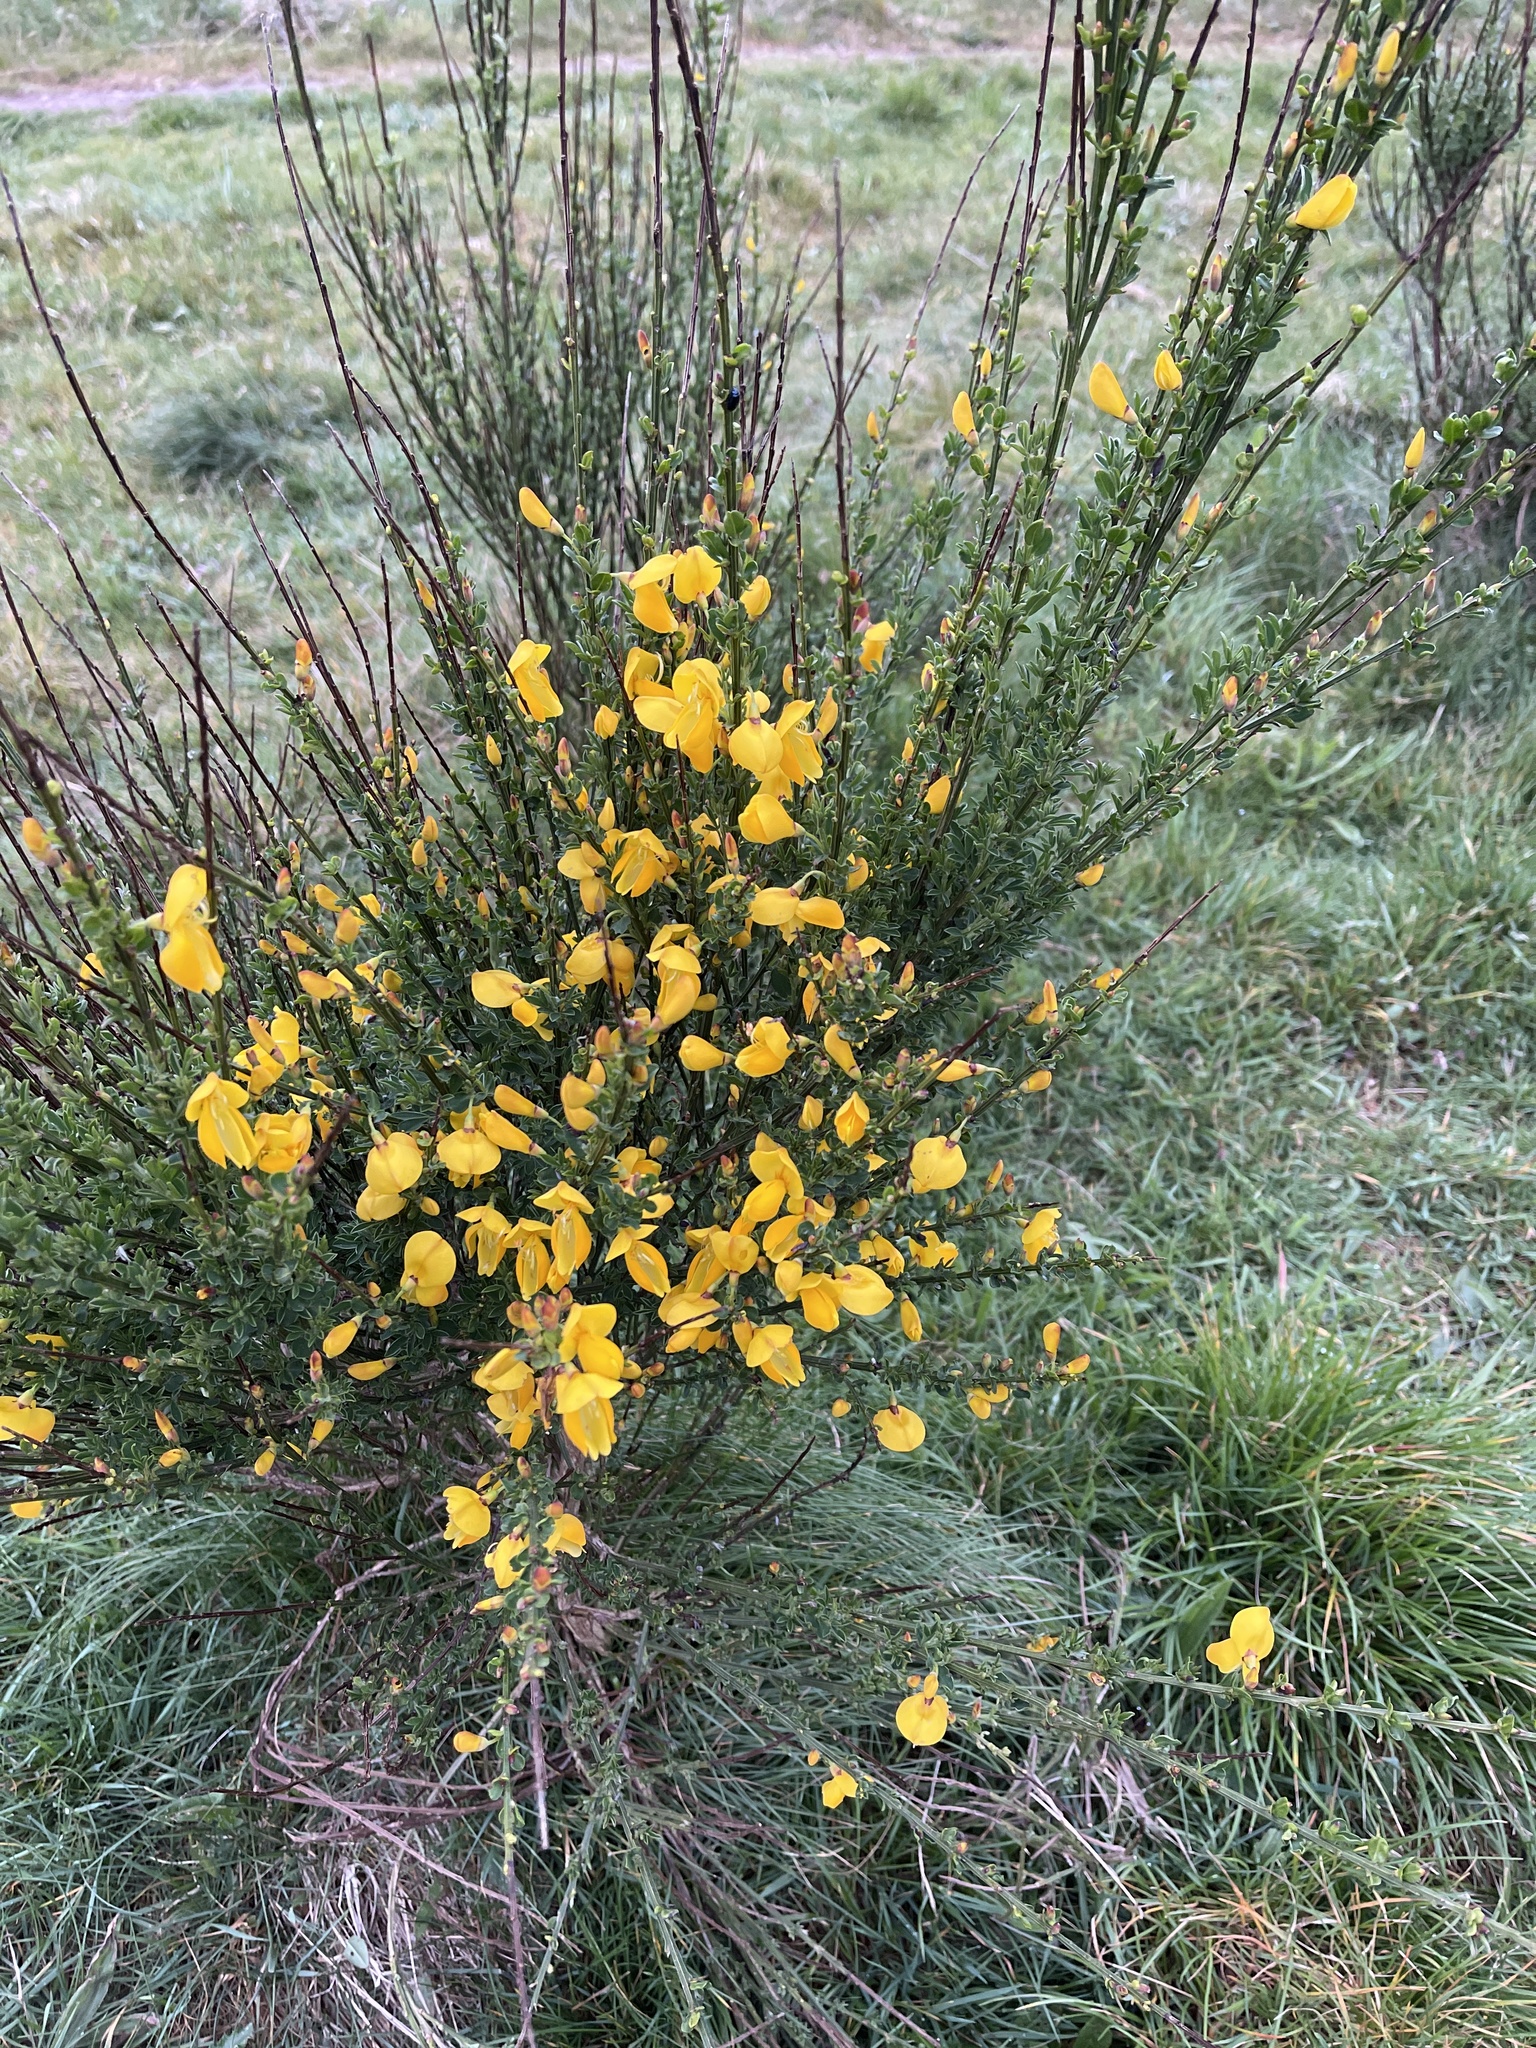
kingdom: Plantae
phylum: Tracheophyta
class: Magnoliopsida
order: Fabales
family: Fabaceae
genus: Cytisus
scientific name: Cytisus scoparius
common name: Scotch broom
